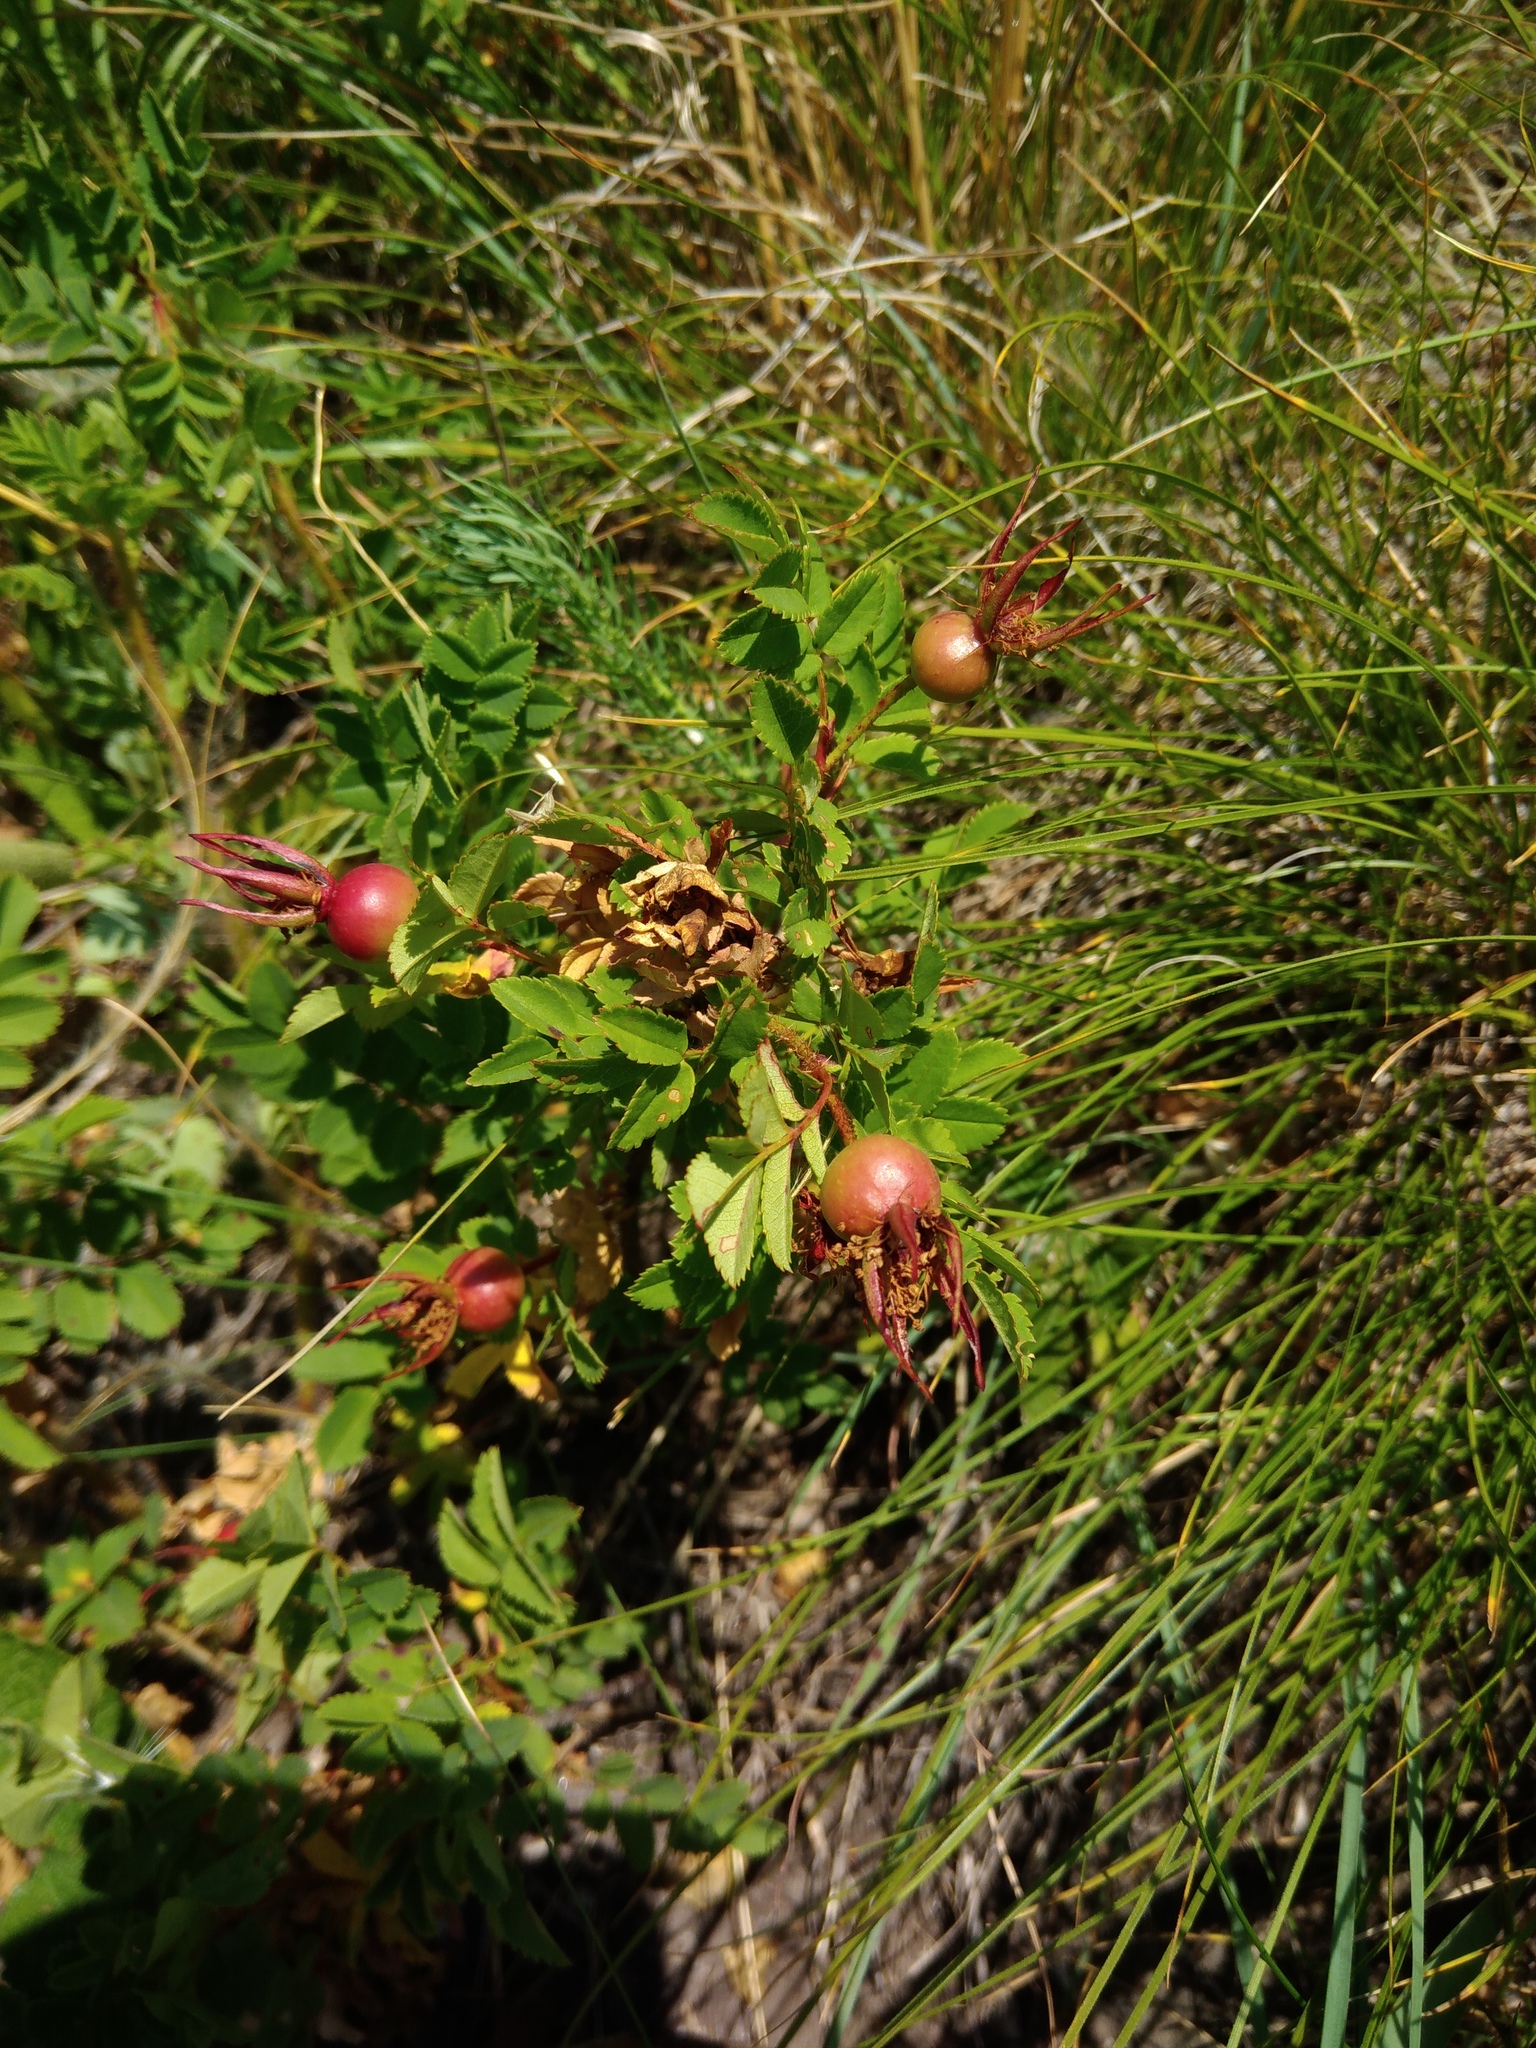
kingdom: Plantae
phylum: Tracheophyta
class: Magnoliopsida
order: Rosales
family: Rosaceae
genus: Rosa
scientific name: Rosa spinosissima
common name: Burnet rose
